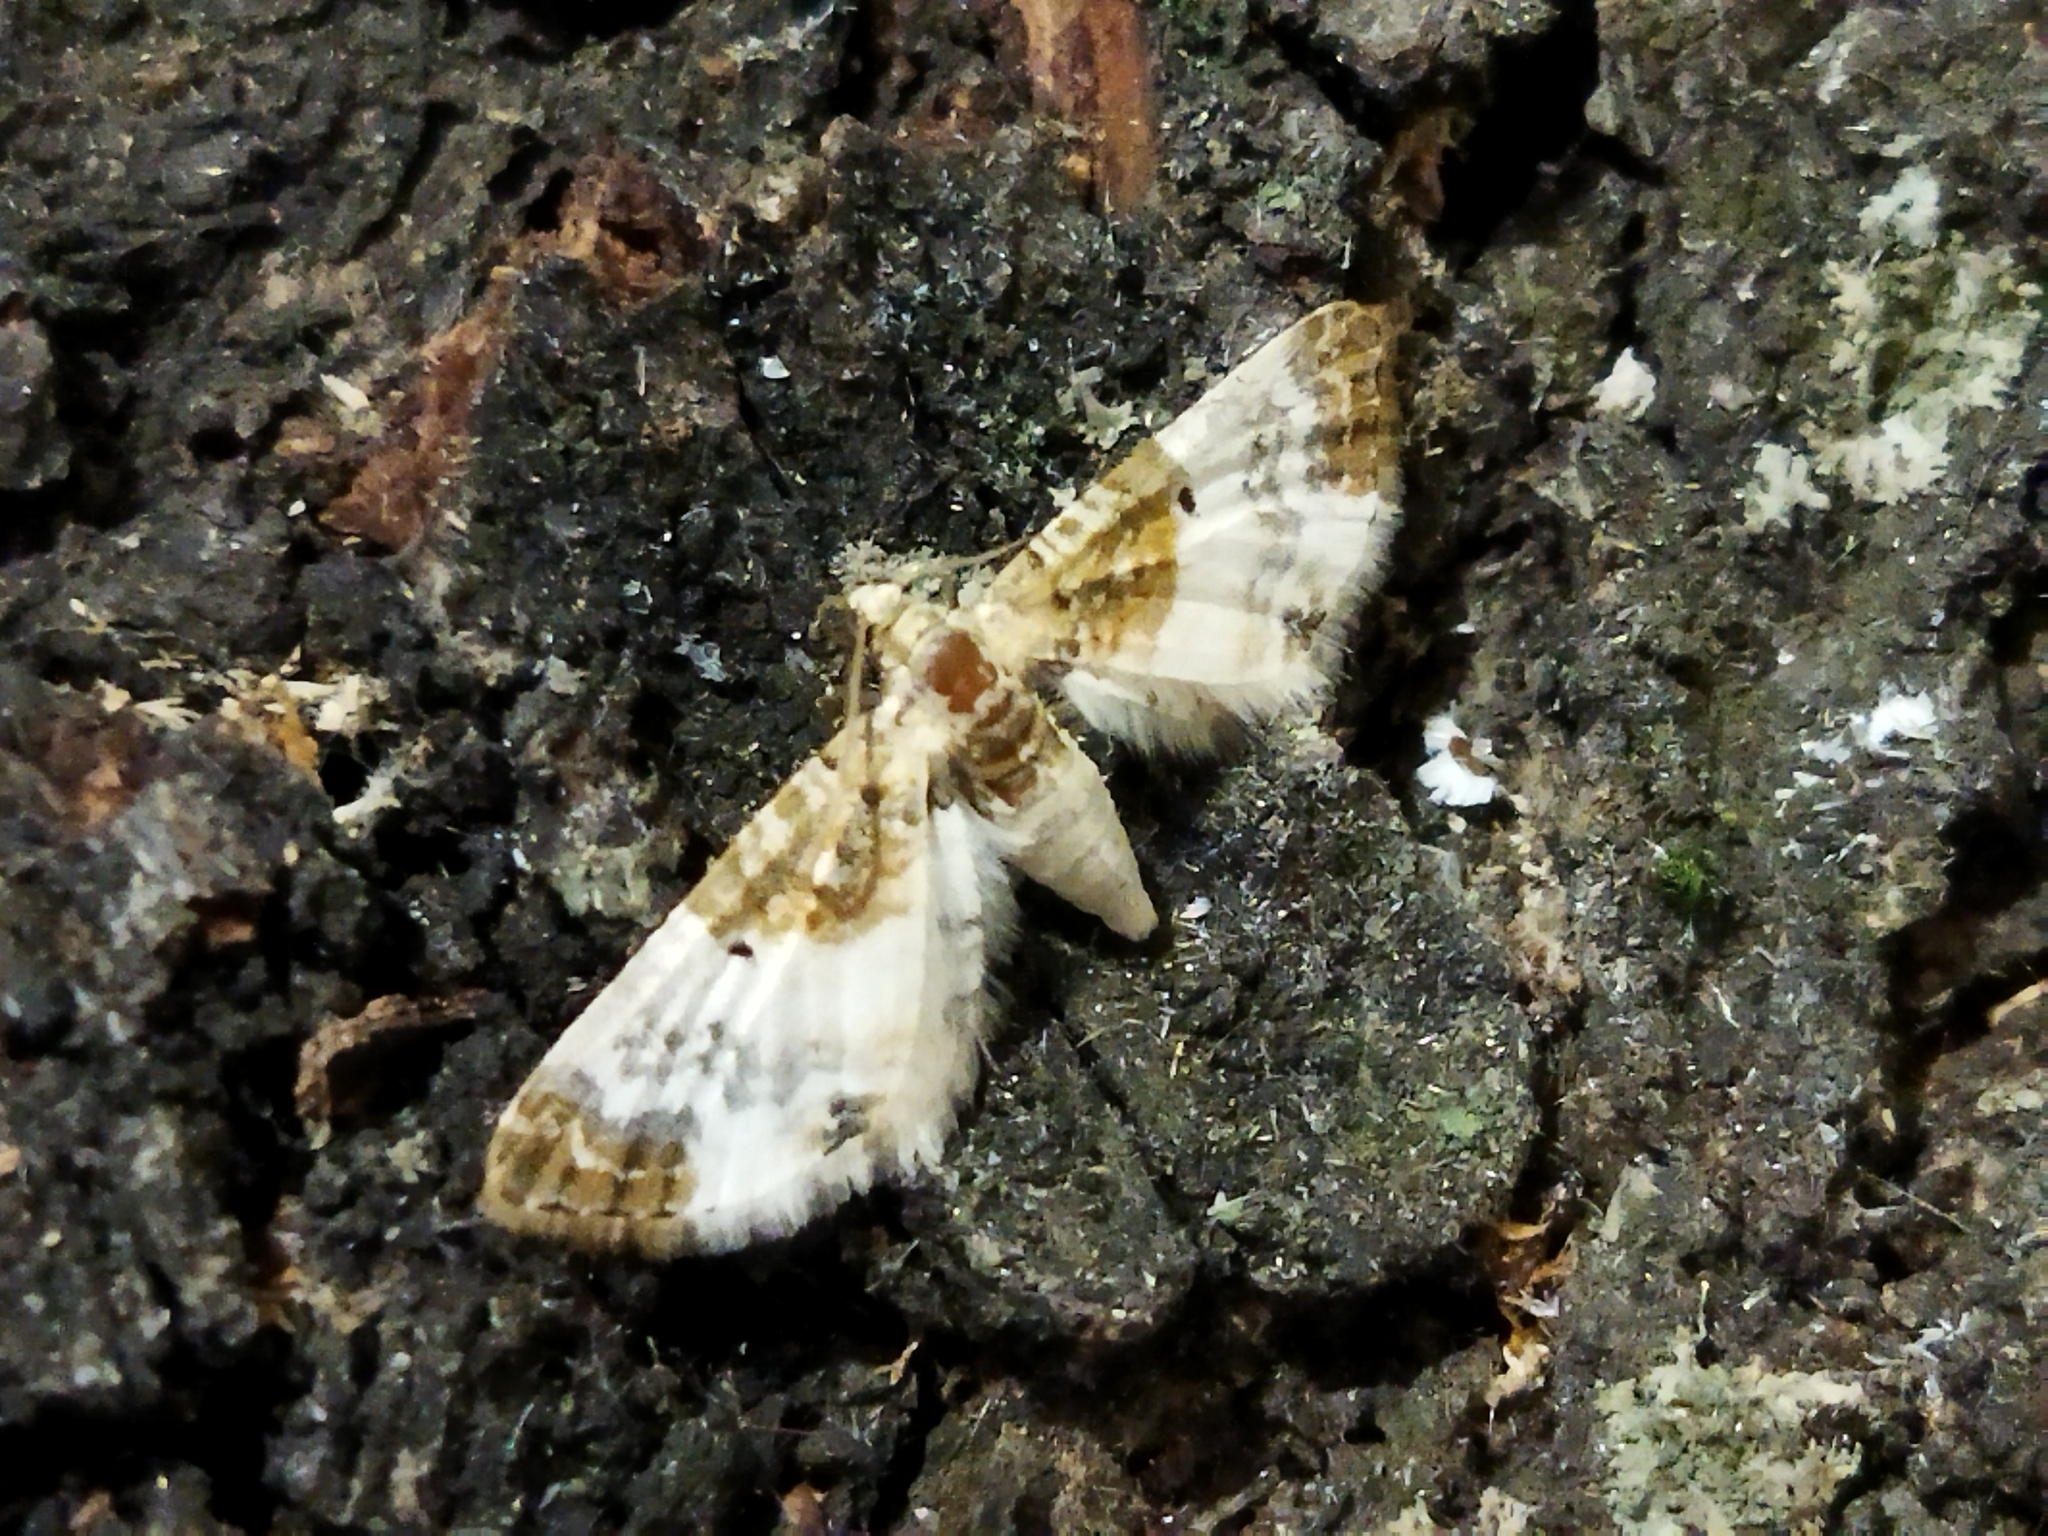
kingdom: Animalia
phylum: Arthropoda
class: Insecta
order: Lepidoptera
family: Geometridae
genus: Eupithecia
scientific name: Eupithecia breviculata
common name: Rusty-shouldered pug
